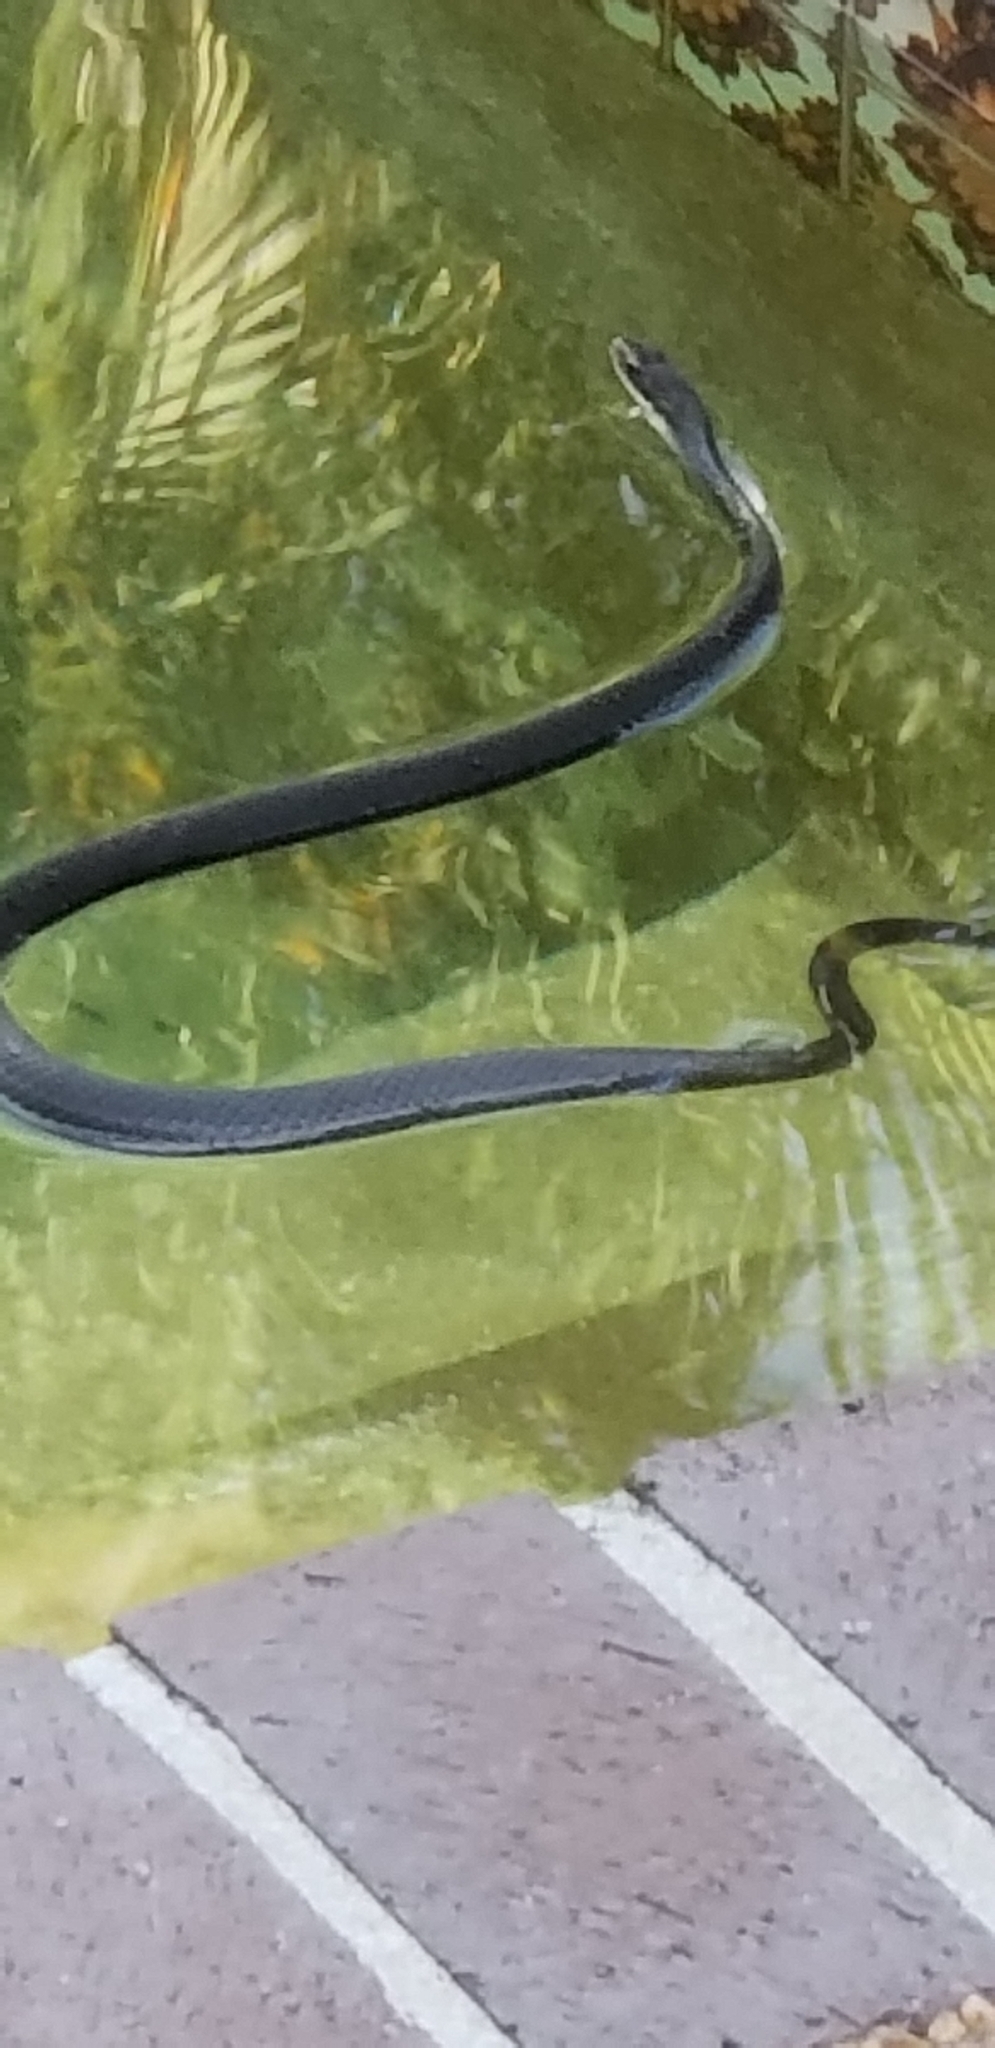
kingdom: Animalia
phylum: Chordata
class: Squamata
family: Colubridae
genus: Coluber
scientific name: Coluber constrictor
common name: Eastern racer
